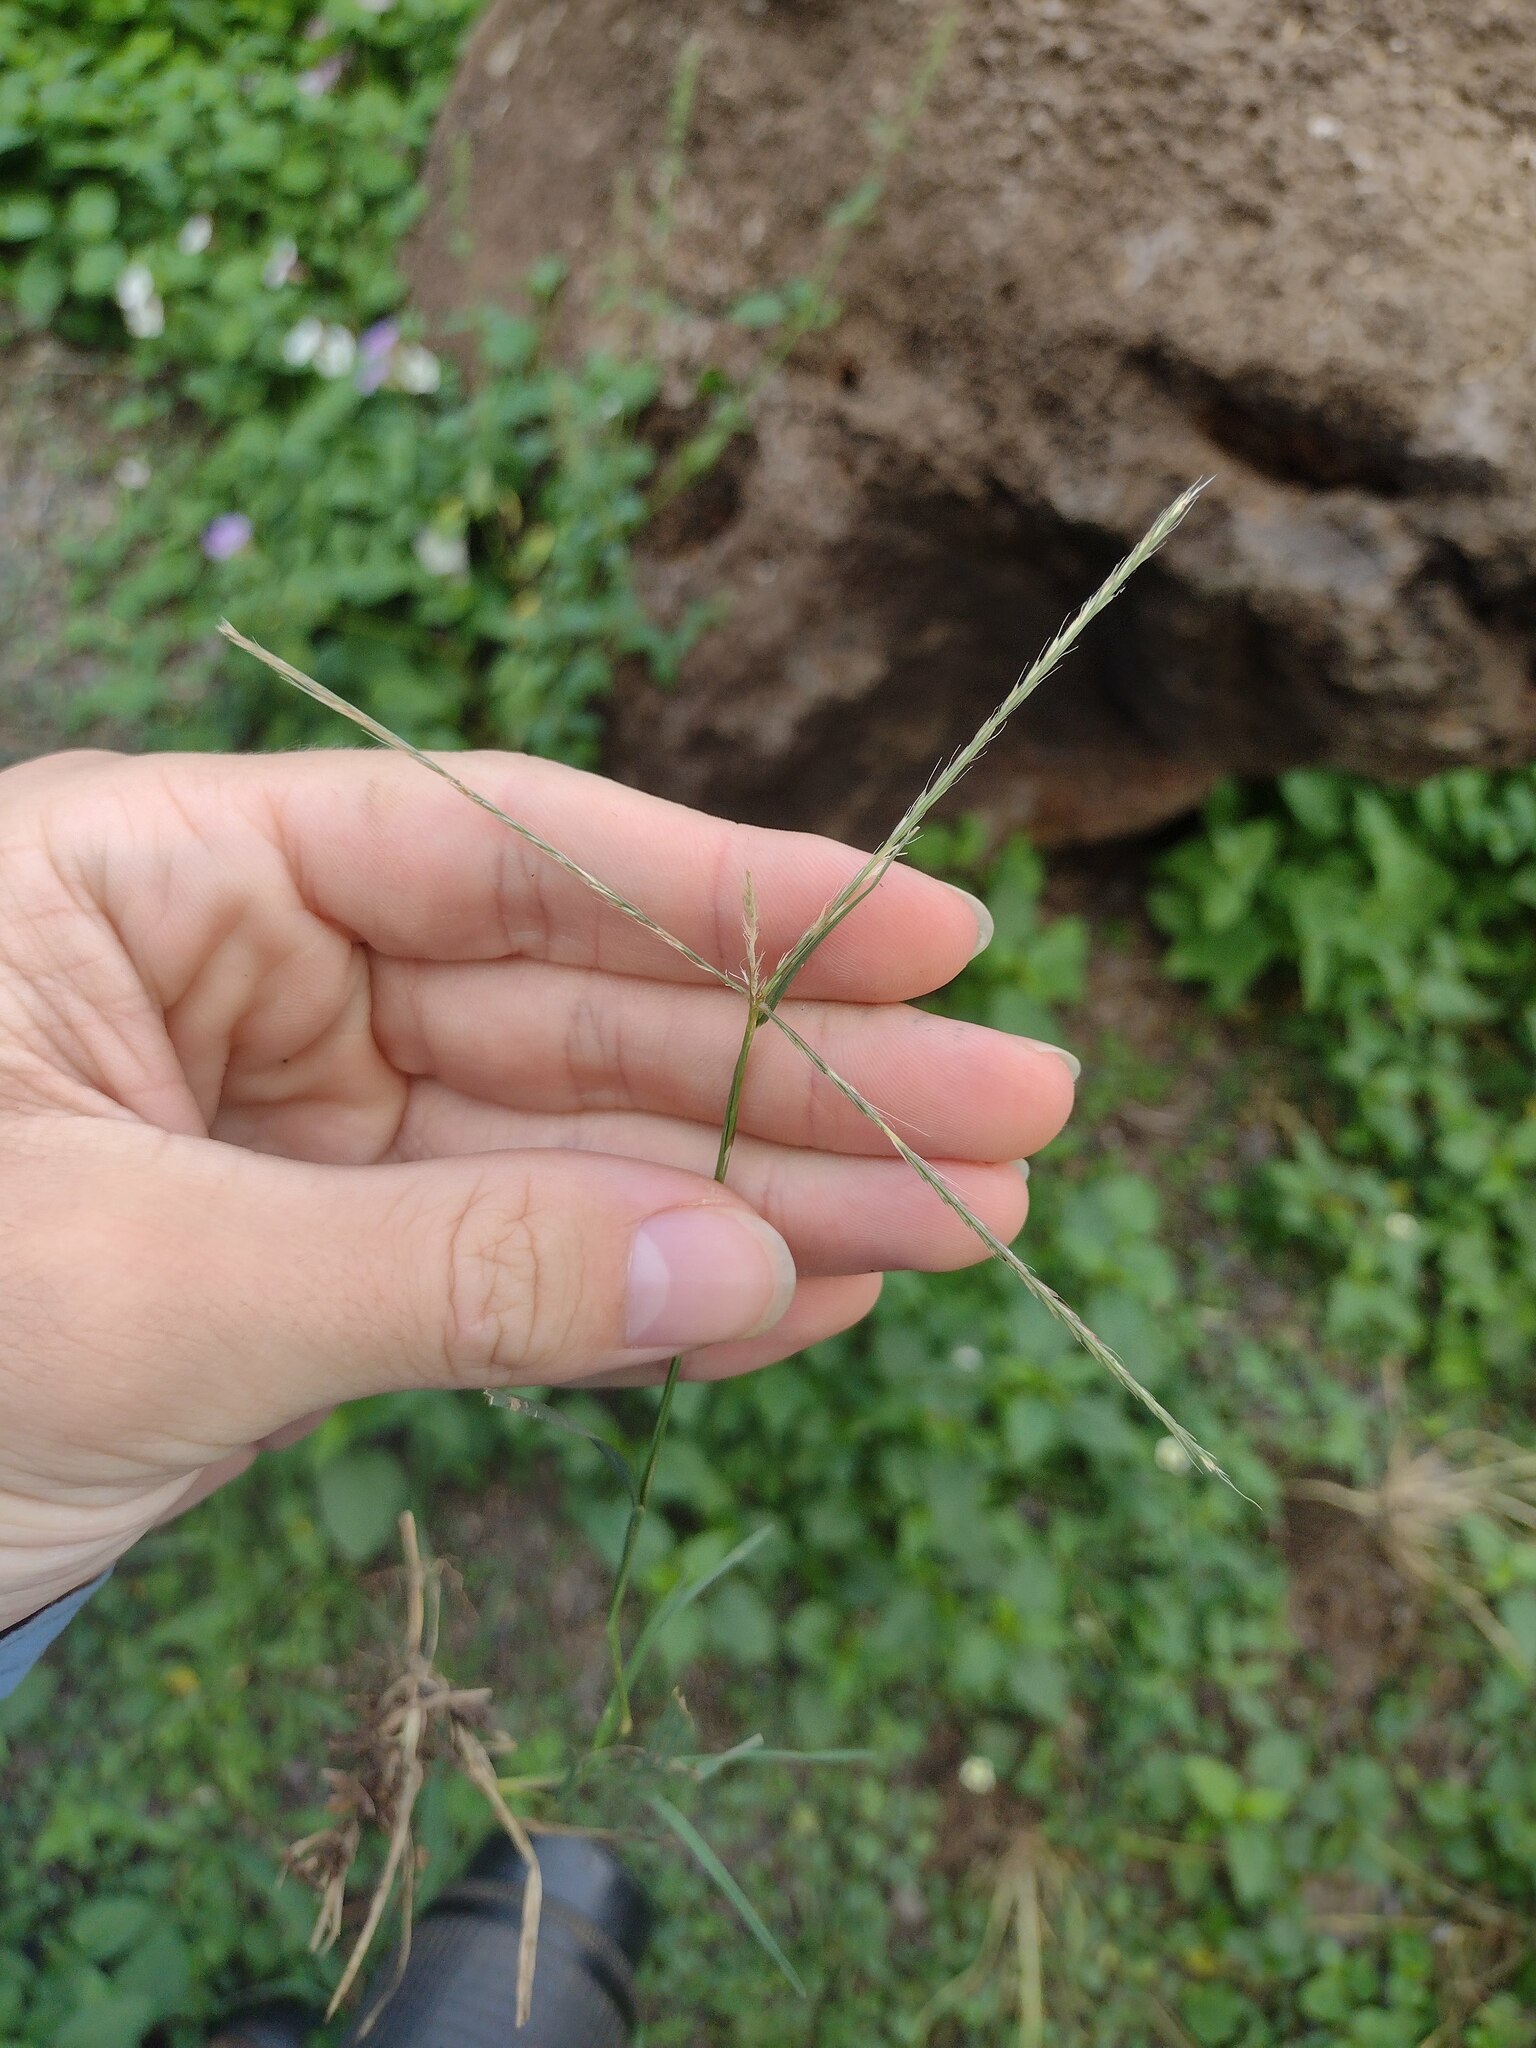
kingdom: Plantae
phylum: Tracheophyta
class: Liliopsida
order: Poales
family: Poaceae
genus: Chloris
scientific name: Chloris divaricata
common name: Spreading windmill grass
